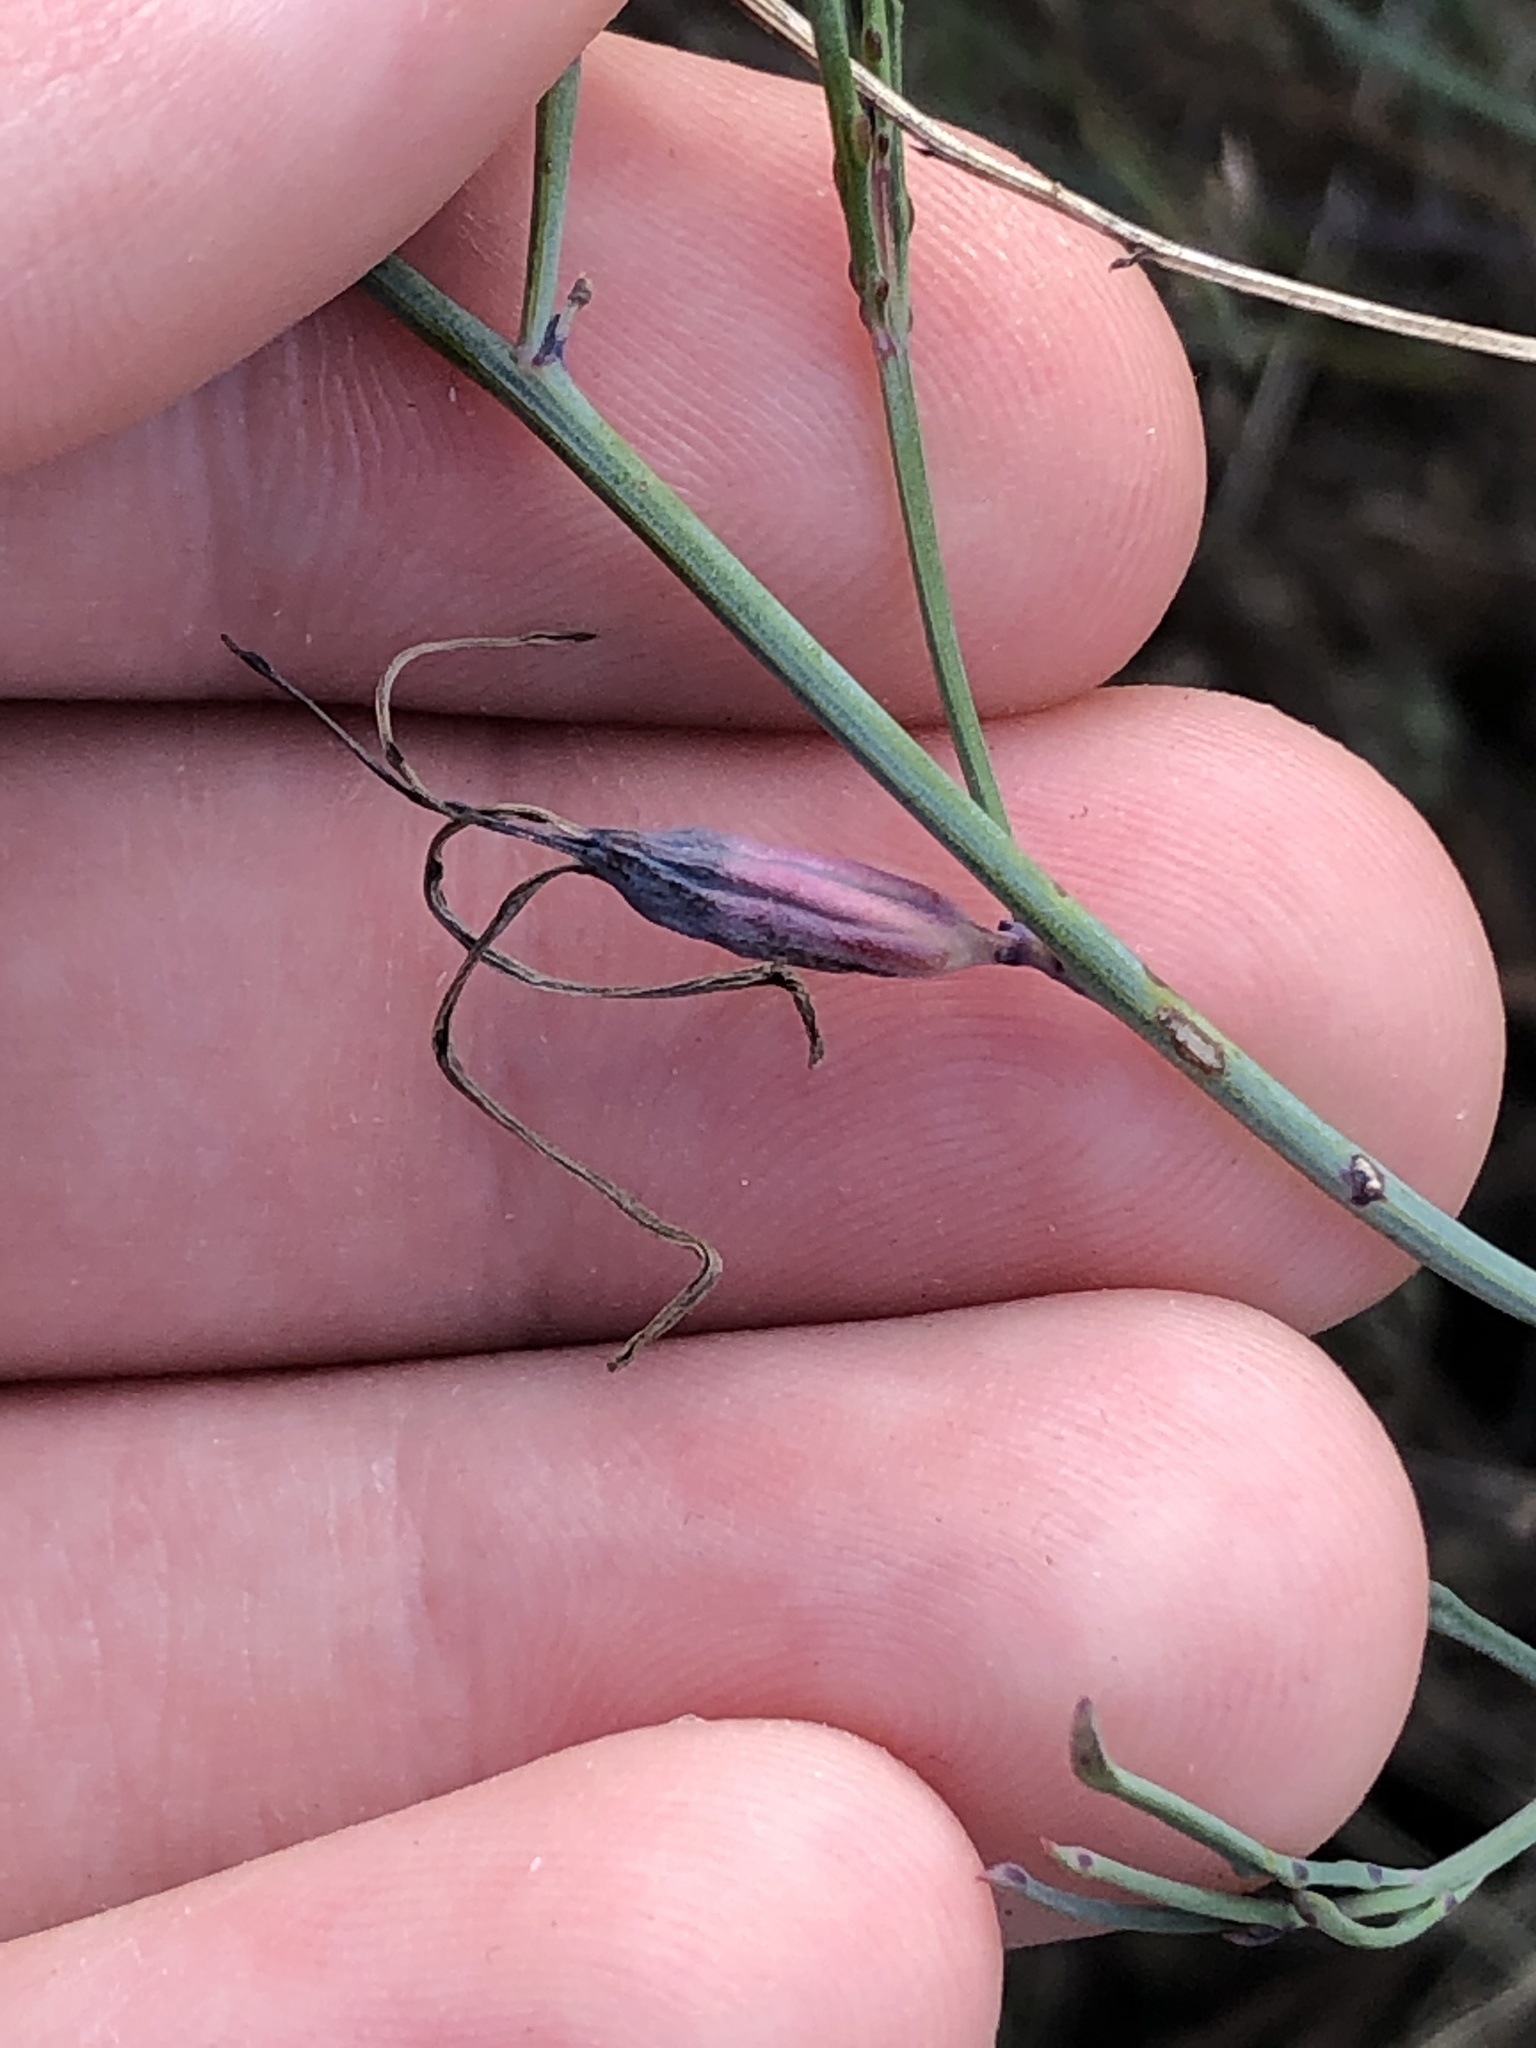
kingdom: Plantae
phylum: Tracheophyta
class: Magnoliopsida
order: Asterales
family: Asteraceae
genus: Porophyllum
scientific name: Porophyllum gracile
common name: Odora
